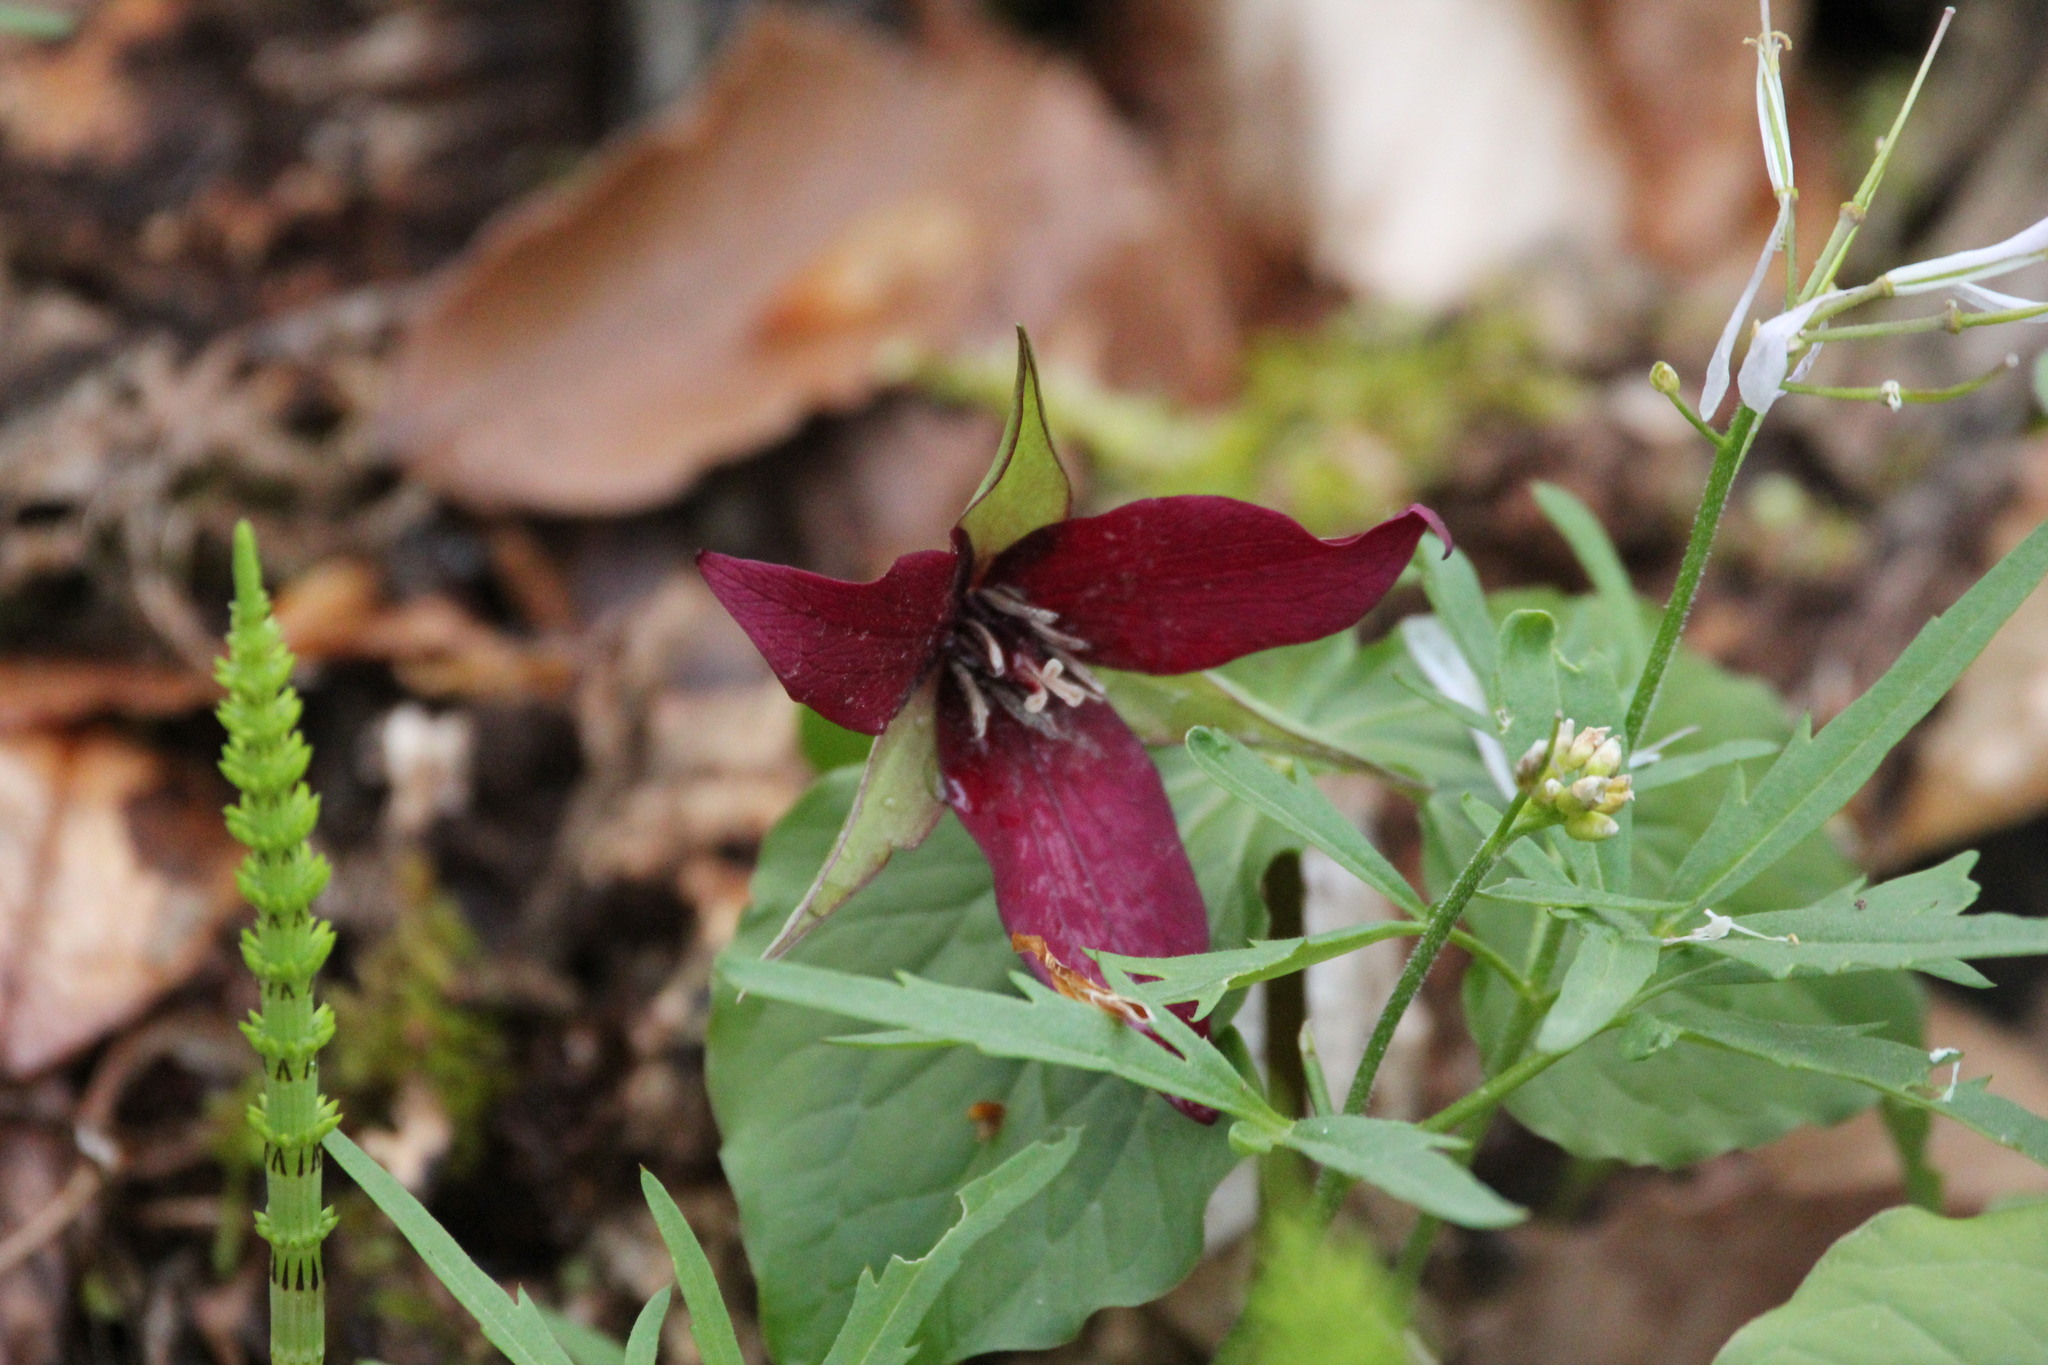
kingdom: Plantae
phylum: Tracheophyta
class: Liliopsida
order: Liliales
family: Melanthiaceae
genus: Trillium
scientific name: Trillium erectum
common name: Purple trillium
